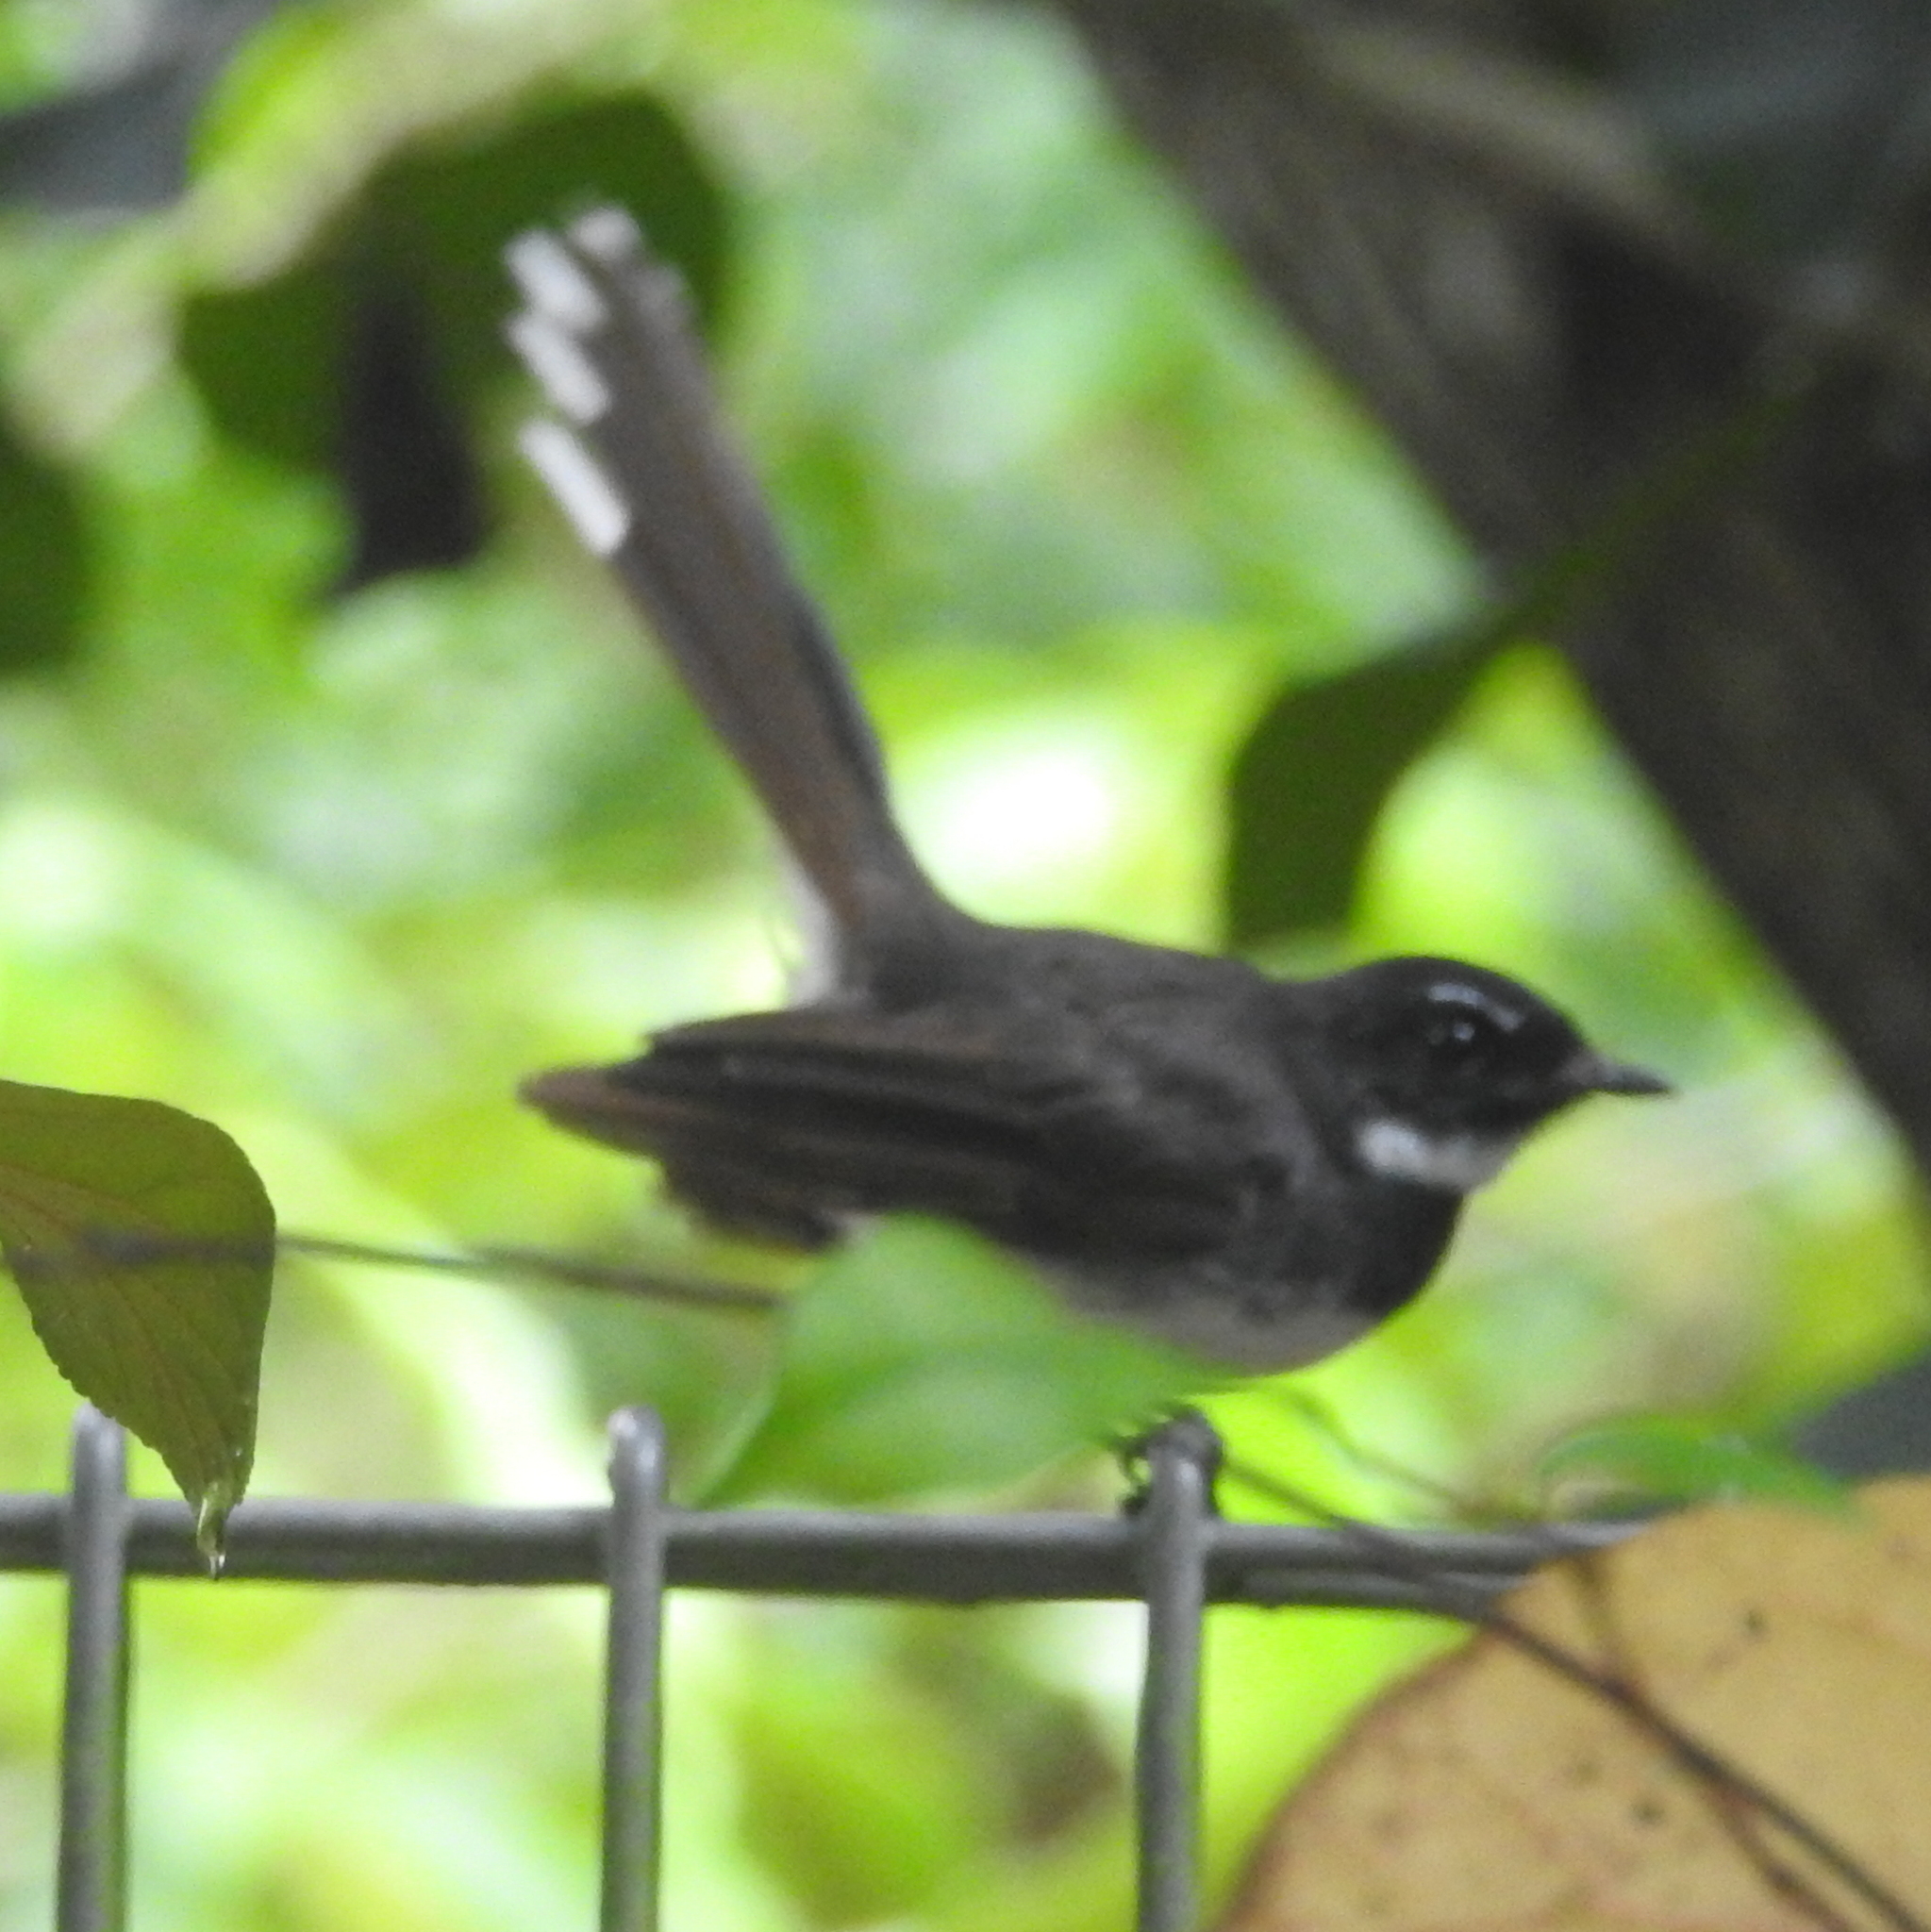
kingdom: Animalia
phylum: Chordata
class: Aves
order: Passeriformes
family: Rhipiduridae
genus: Rhipidura
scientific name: Rhipidura javanica
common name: Pied fantail
